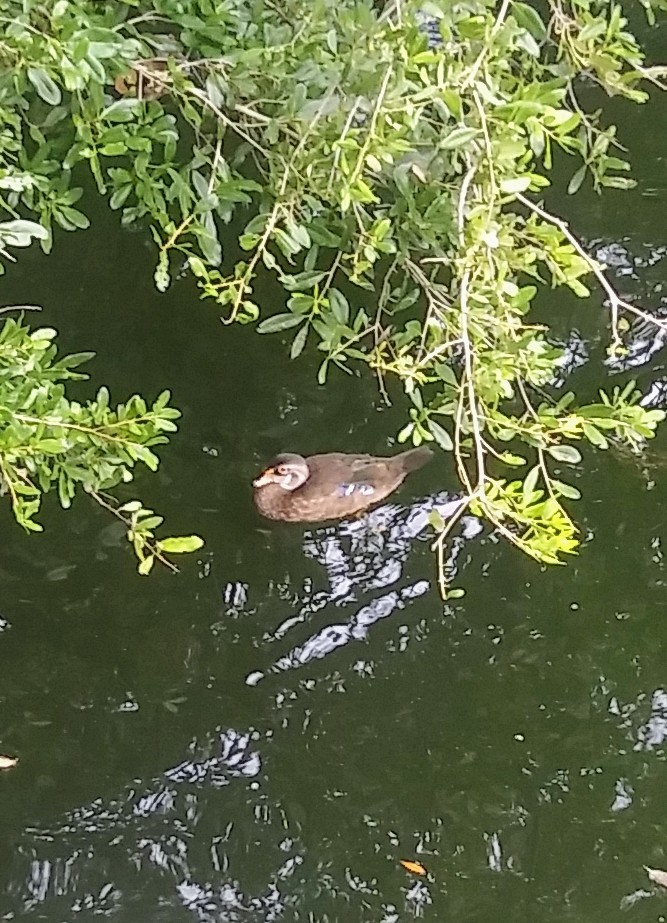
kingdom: Animalia
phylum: Chordata
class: Aves
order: Anseriformes
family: Anatidae
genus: Aix
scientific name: Aix sponsa
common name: Wood duck
